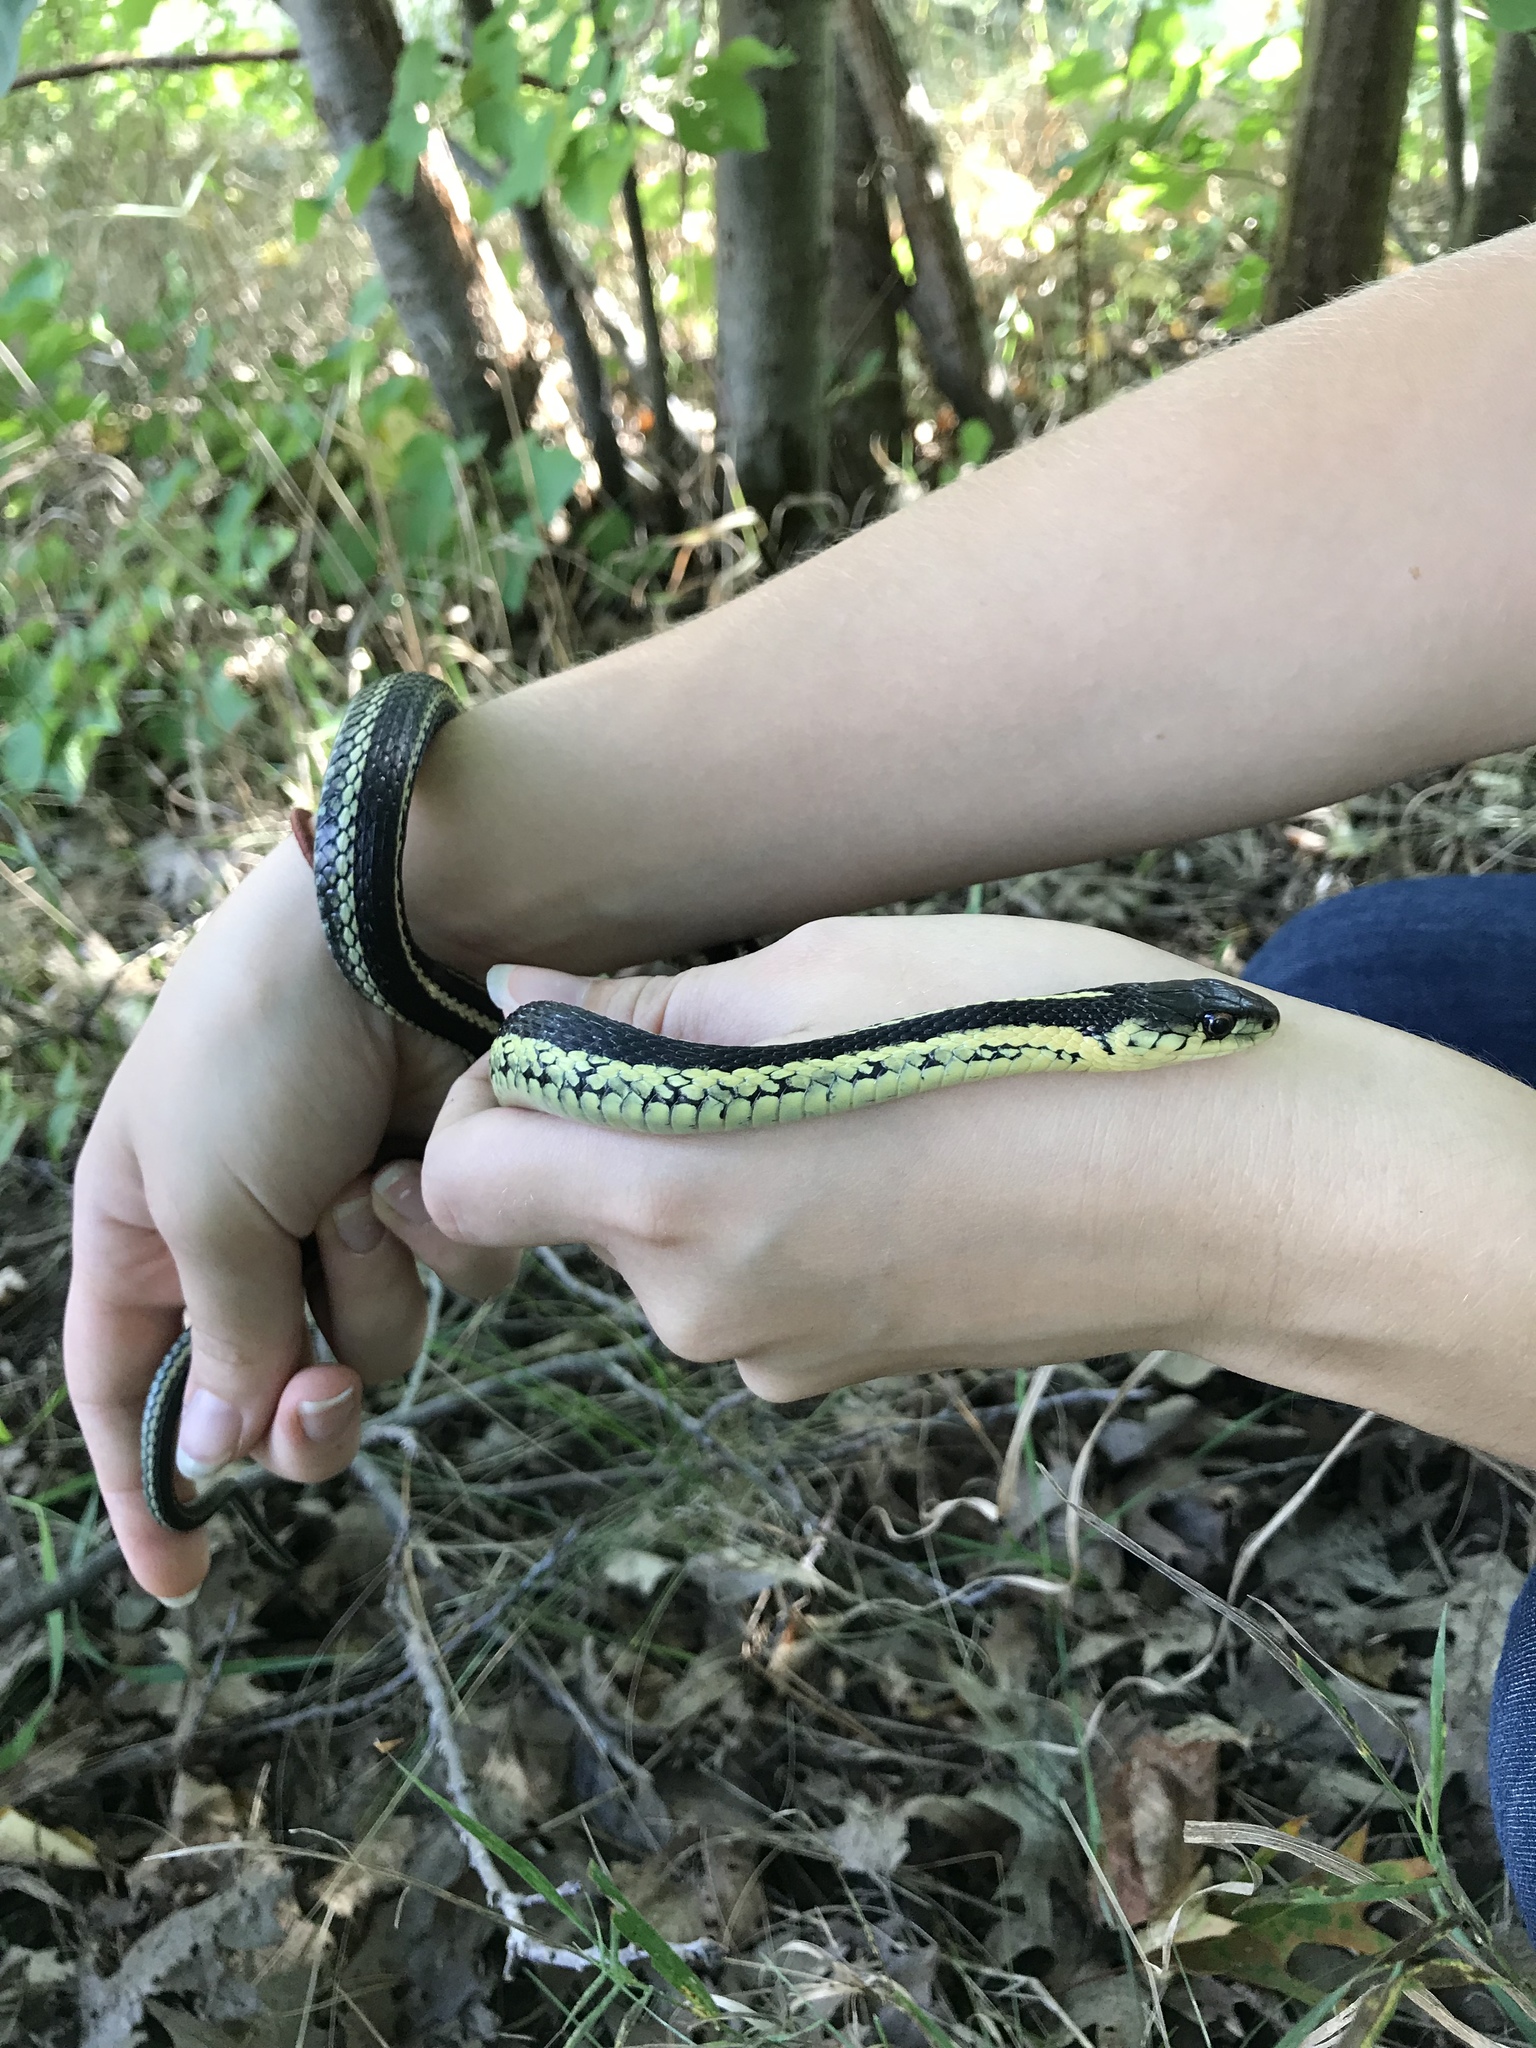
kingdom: Animalia
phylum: Chordata
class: Squamata
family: Colubridae
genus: Thamnophis
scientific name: Thamnophis sirtalis
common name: Common garter snake
